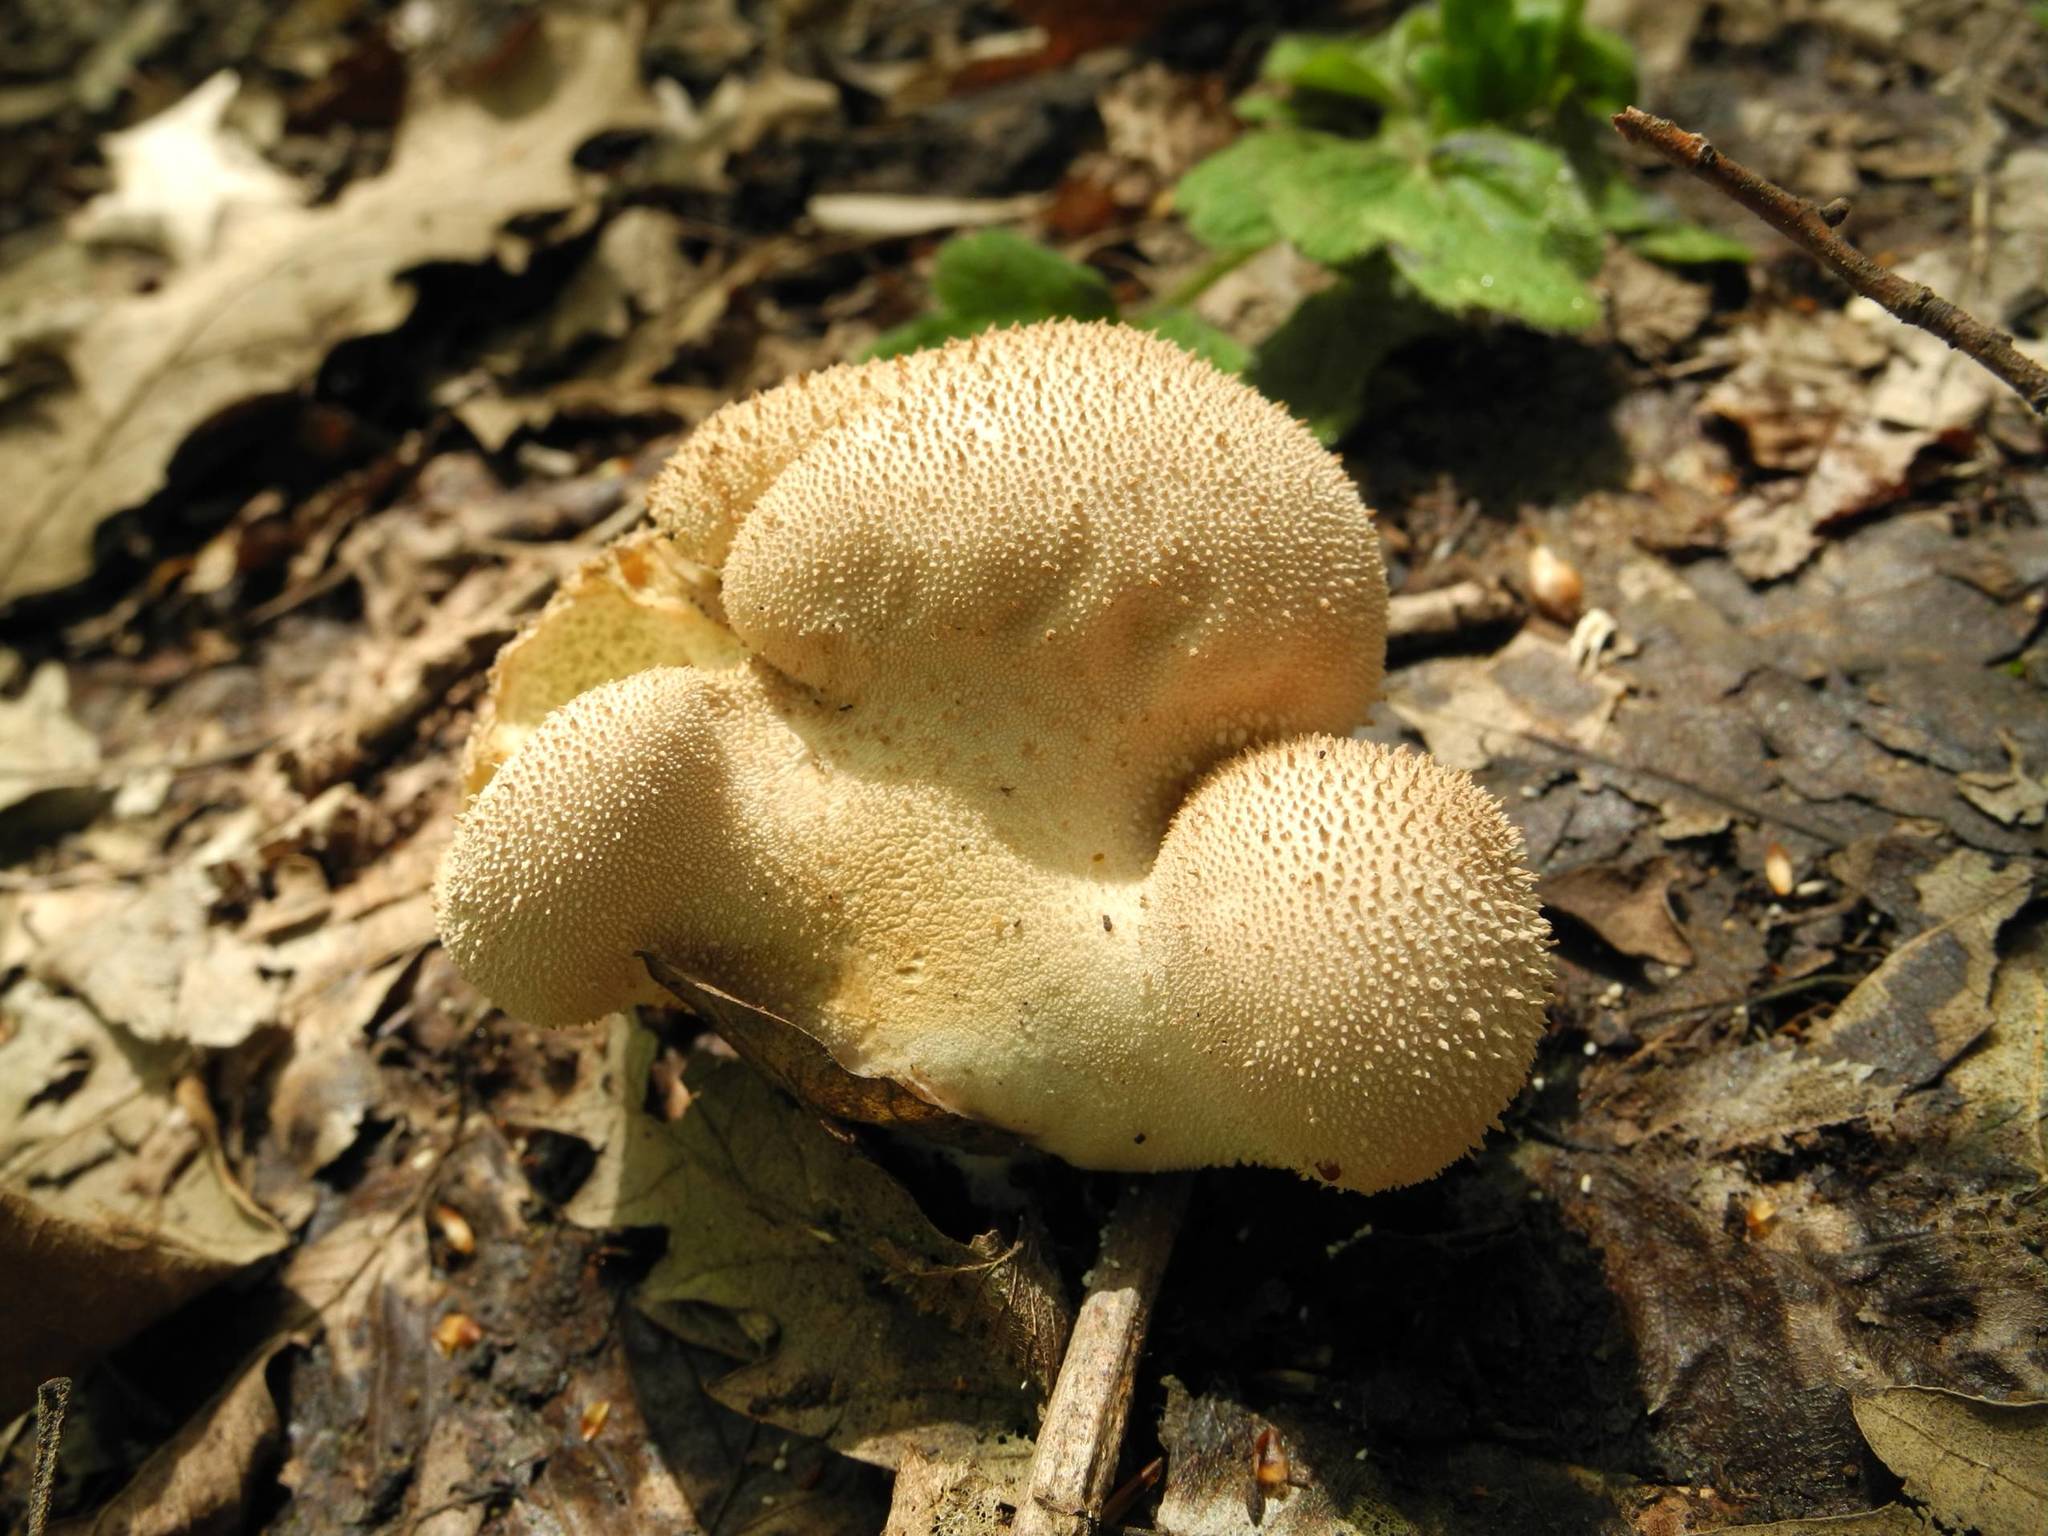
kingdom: Fungi
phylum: Basidiomycota
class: Agaricomycetes
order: Agaricales
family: Lycoperdaceae
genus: Lycoperdon
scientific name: Lycoperdon perlatum
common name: Common puffball
